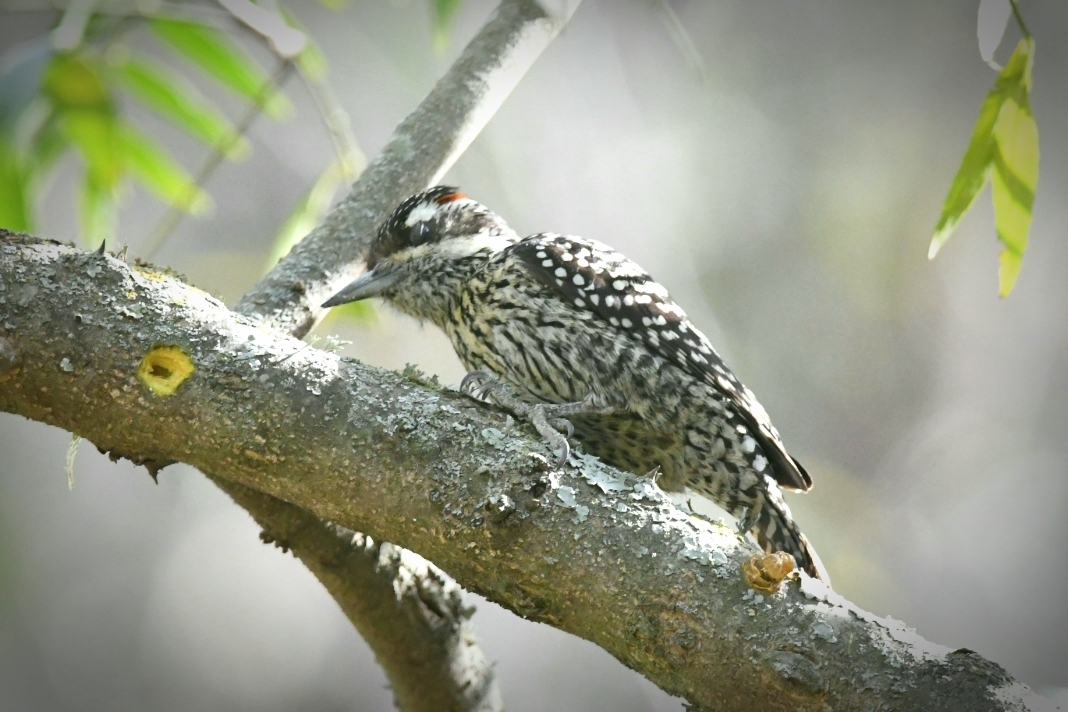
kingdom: Animalia
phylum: Chordata
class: Aves
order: Piciformes
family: Picidae
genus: Veniliornis
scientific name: Veniliornis mixtus
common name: Checkered woodpecker
